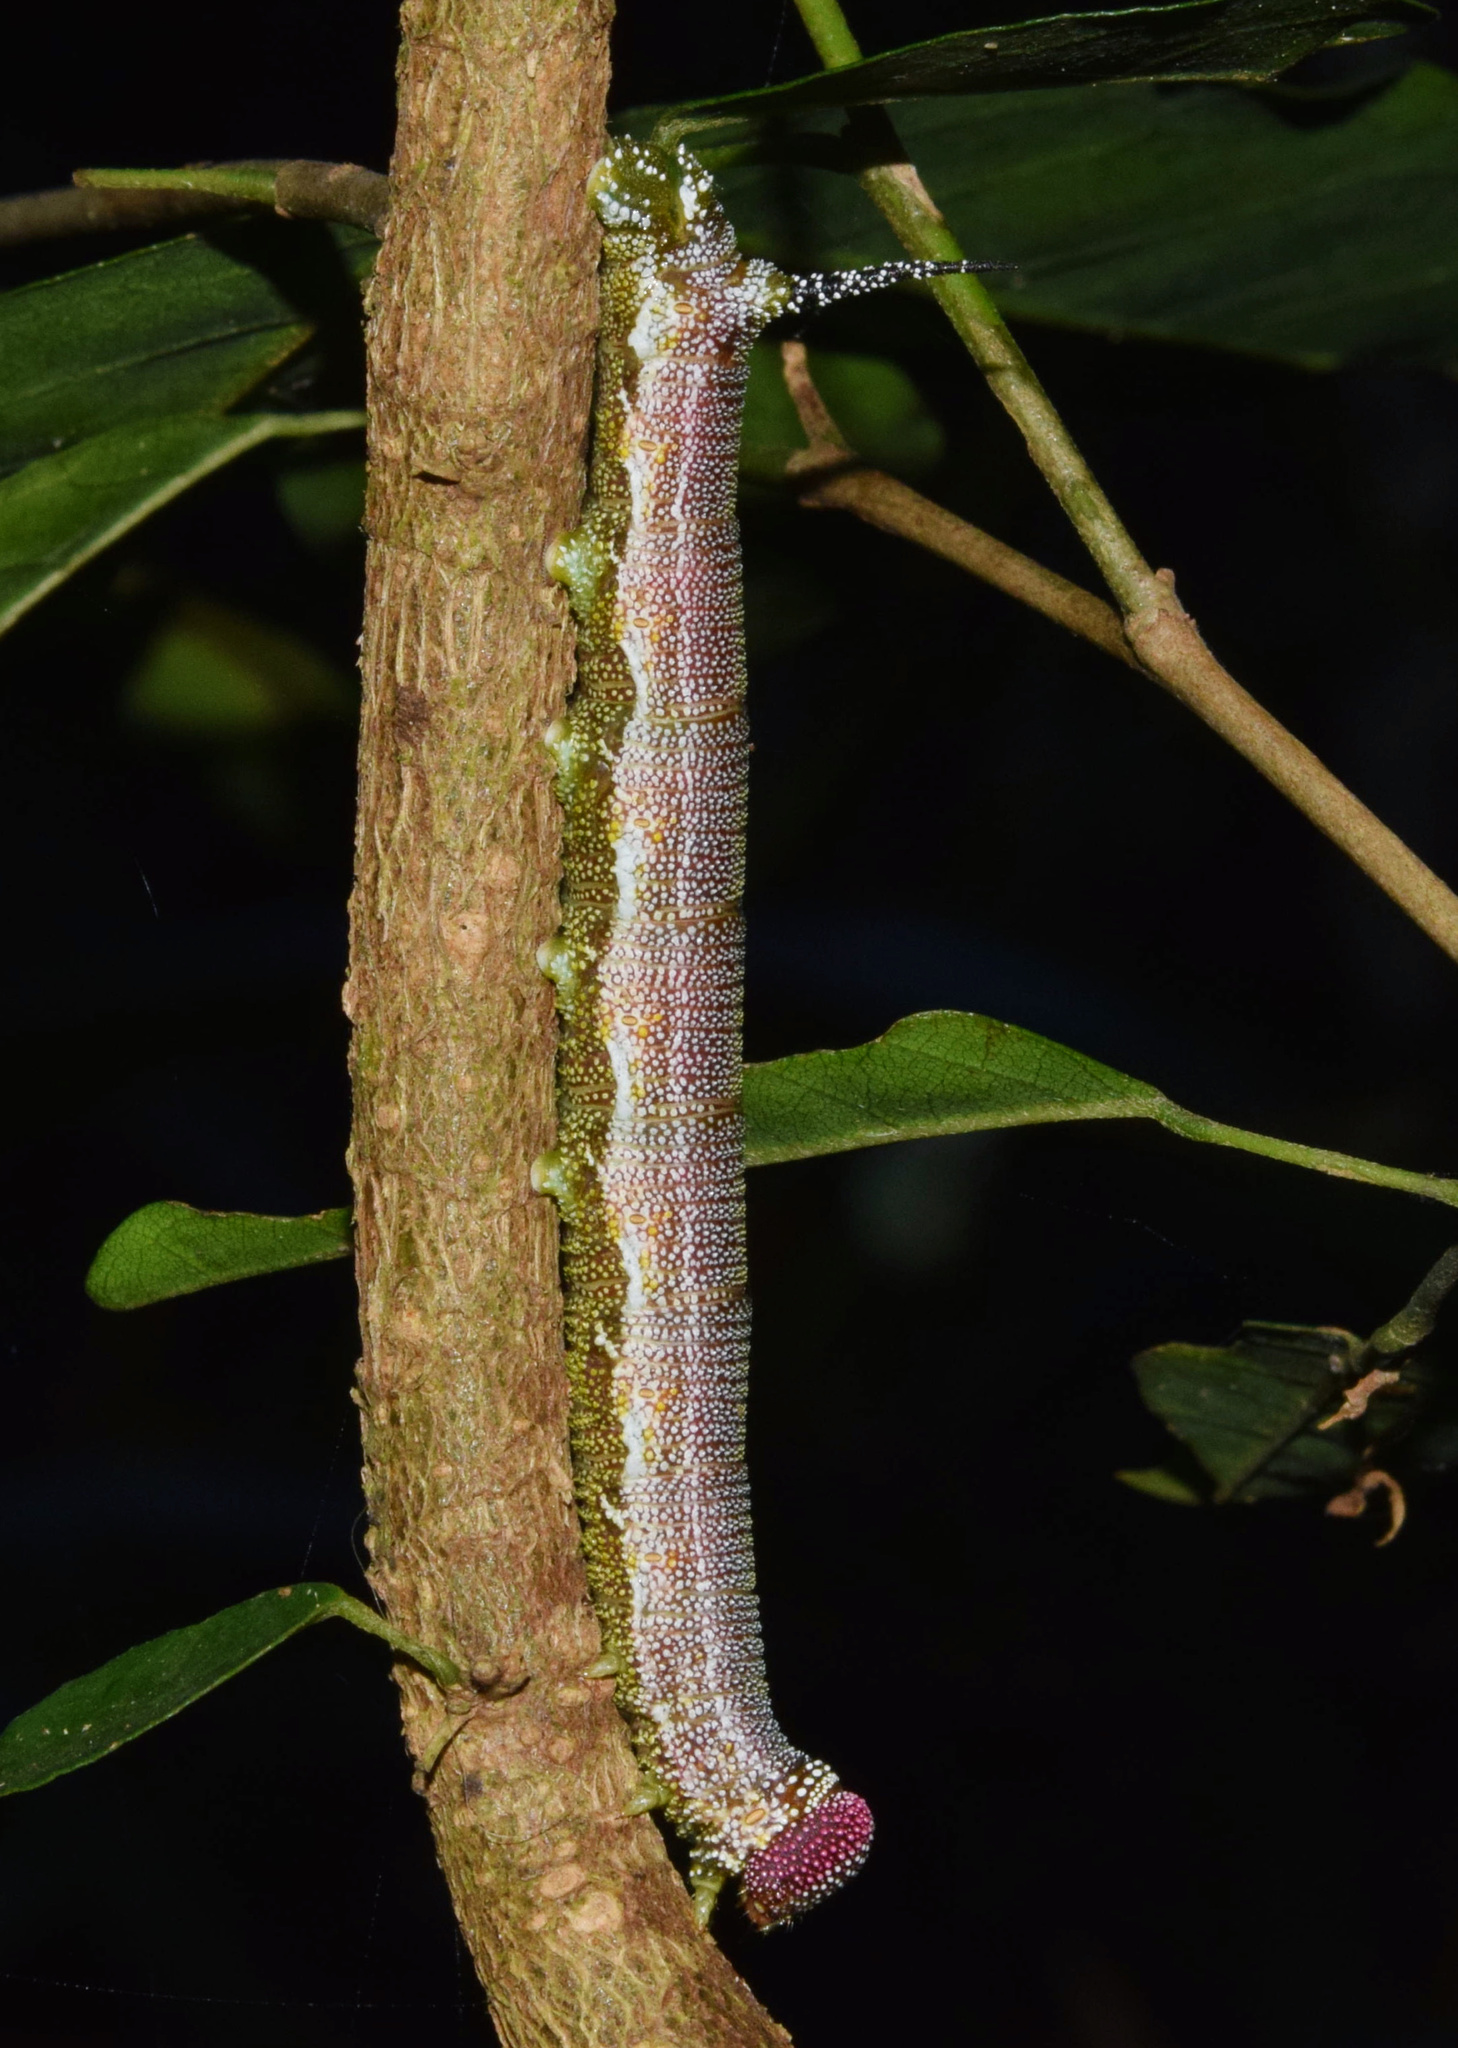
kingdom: Animalia
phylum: Arthropoda
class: Insecta
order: Lepidoptera
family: Sphingidae
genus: Pseudandriasa
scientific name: Pseudandriasa mutata
